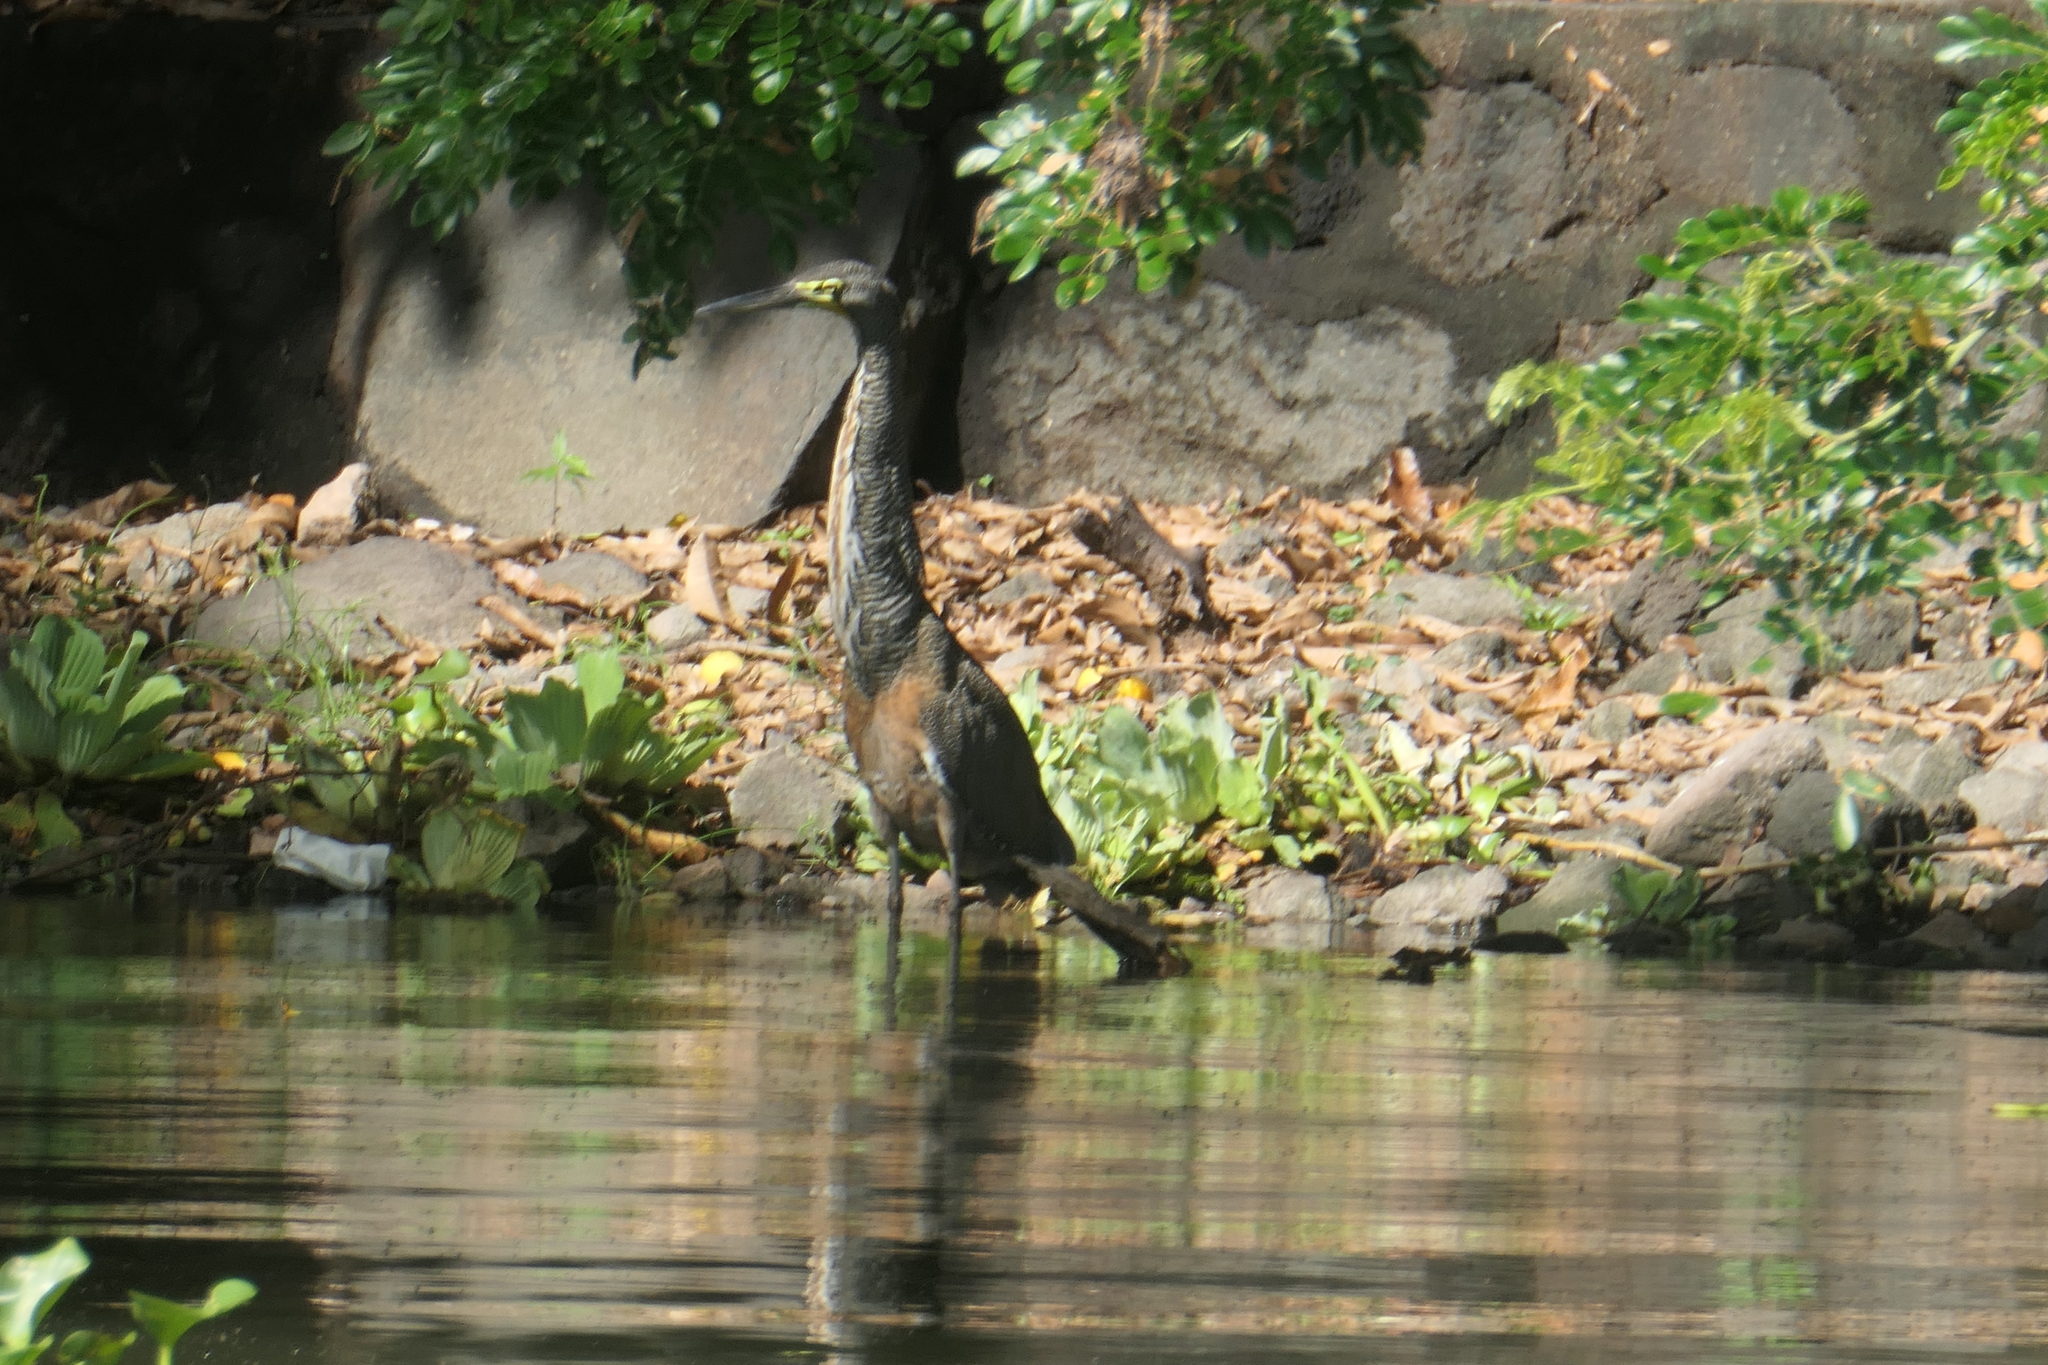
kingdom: Animalia
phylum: Chordata
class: Aves
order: Pelecaniformes
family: Ardeidae
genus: Tigrisoma
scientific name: Tigrisoma mexicanum
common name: Bare-throated tiger-heron
